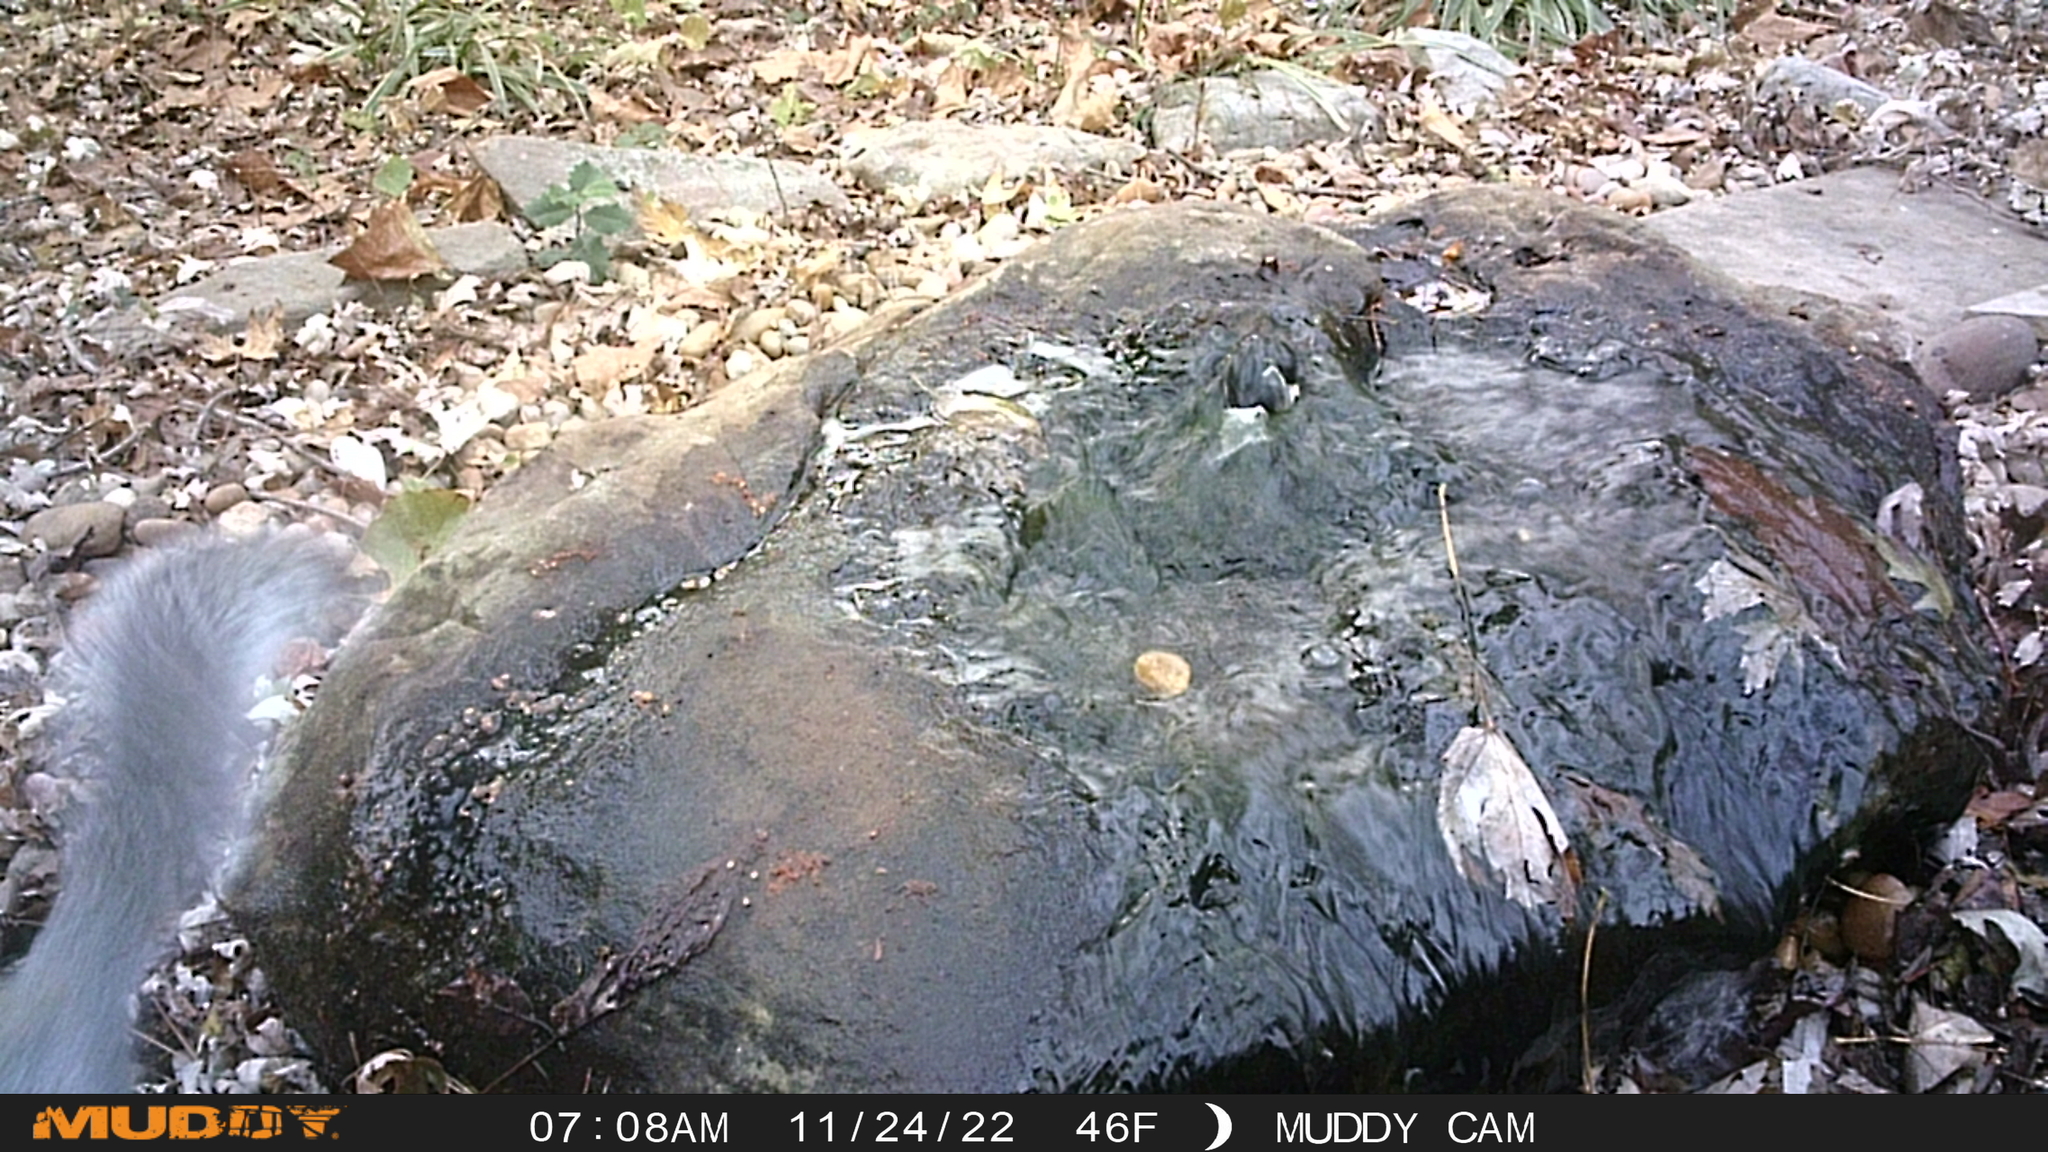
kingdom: Animalia
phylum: Chordata
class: Mammalia
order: Rodentia
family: Sciuridae
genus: Sciurus
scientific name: Sciurus carolinensis
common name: Eastern gray squirrel
